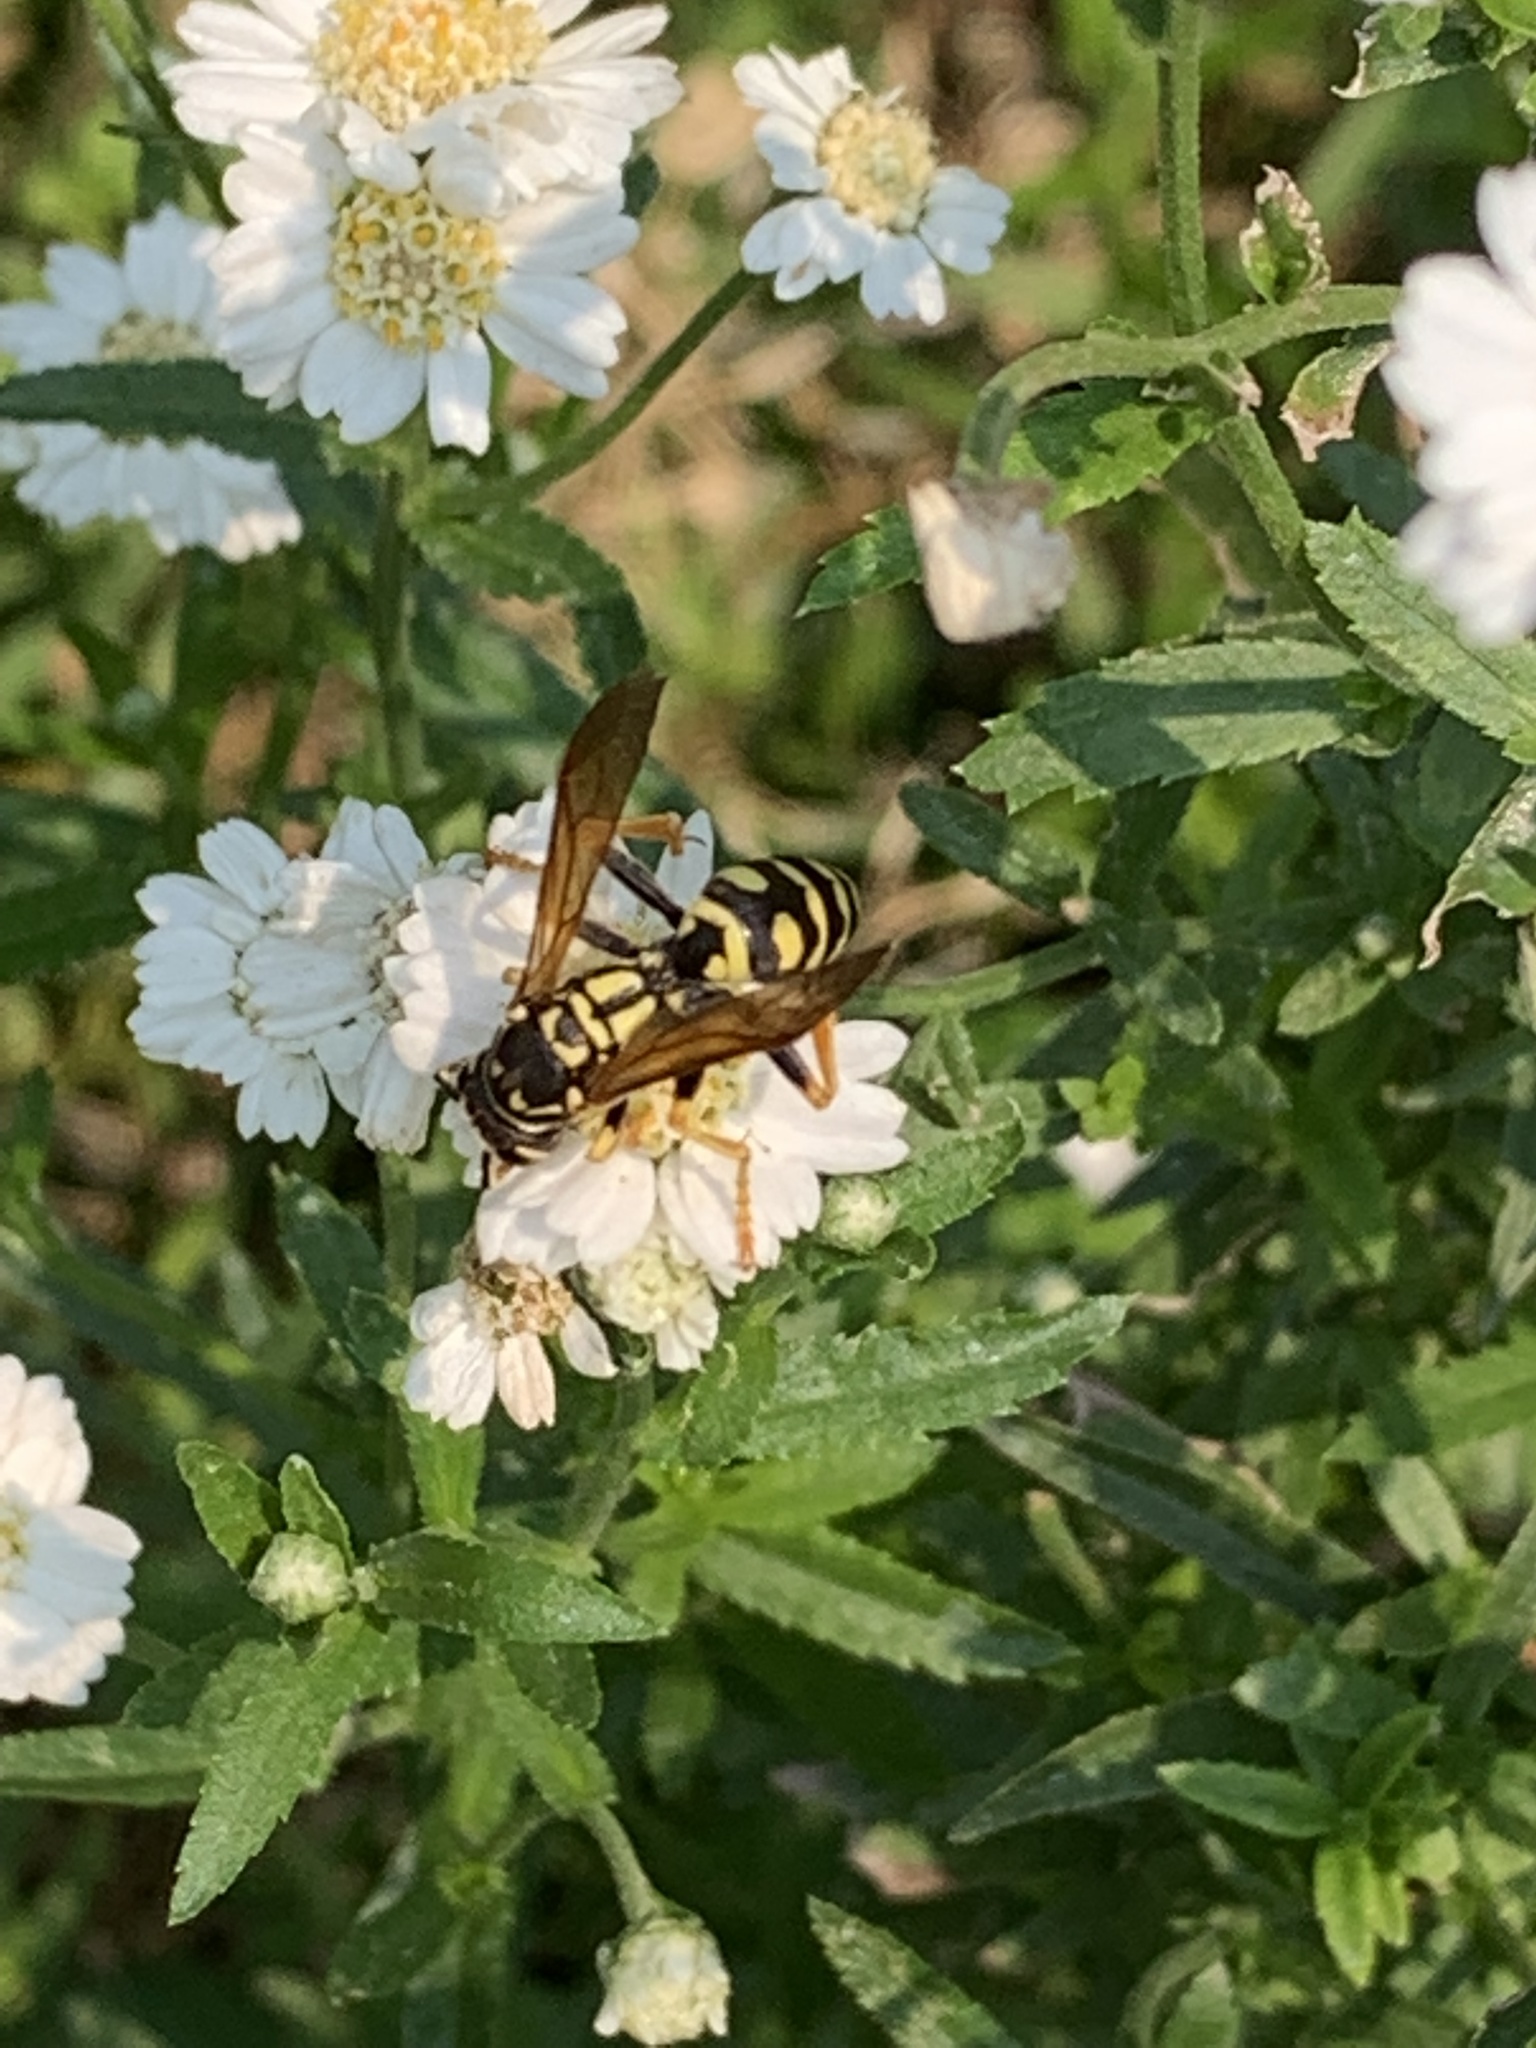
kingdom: Animalia
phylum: Arthropoda
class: Insecta
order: Hymenoptera
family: Eumenidae
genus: Polistes
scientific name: Polistes dominula
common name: Paper wasp
